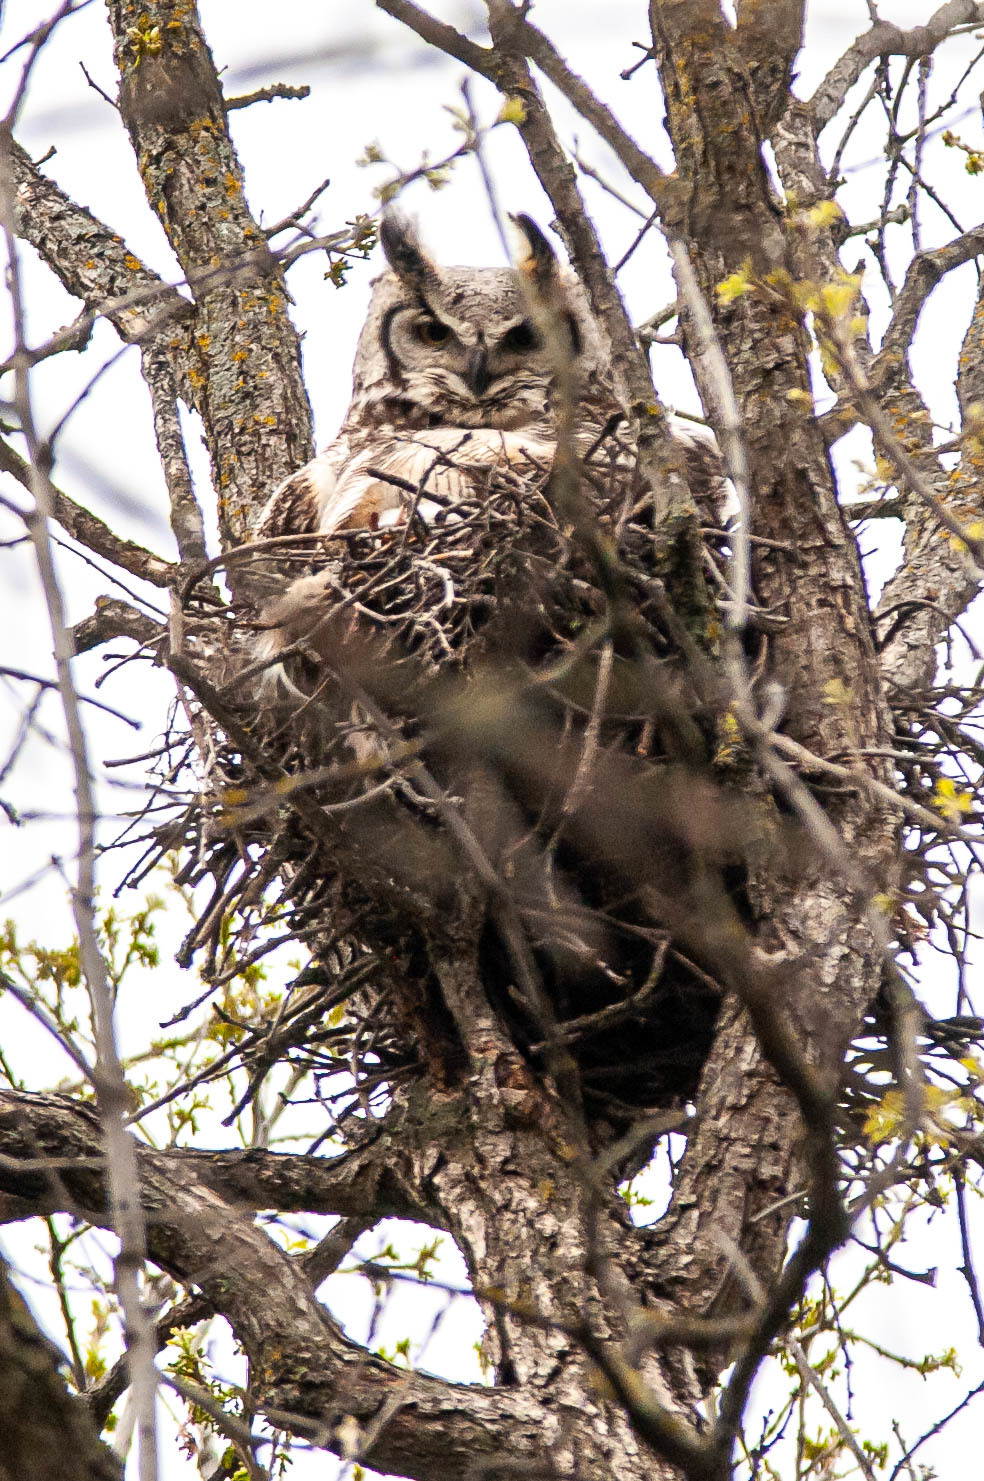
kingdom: Animalia
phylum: Chordata
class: Aves
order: Strigiformes
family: Strigidae
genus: Bubo
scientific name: Bubo virginianus
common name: Great horned owl
